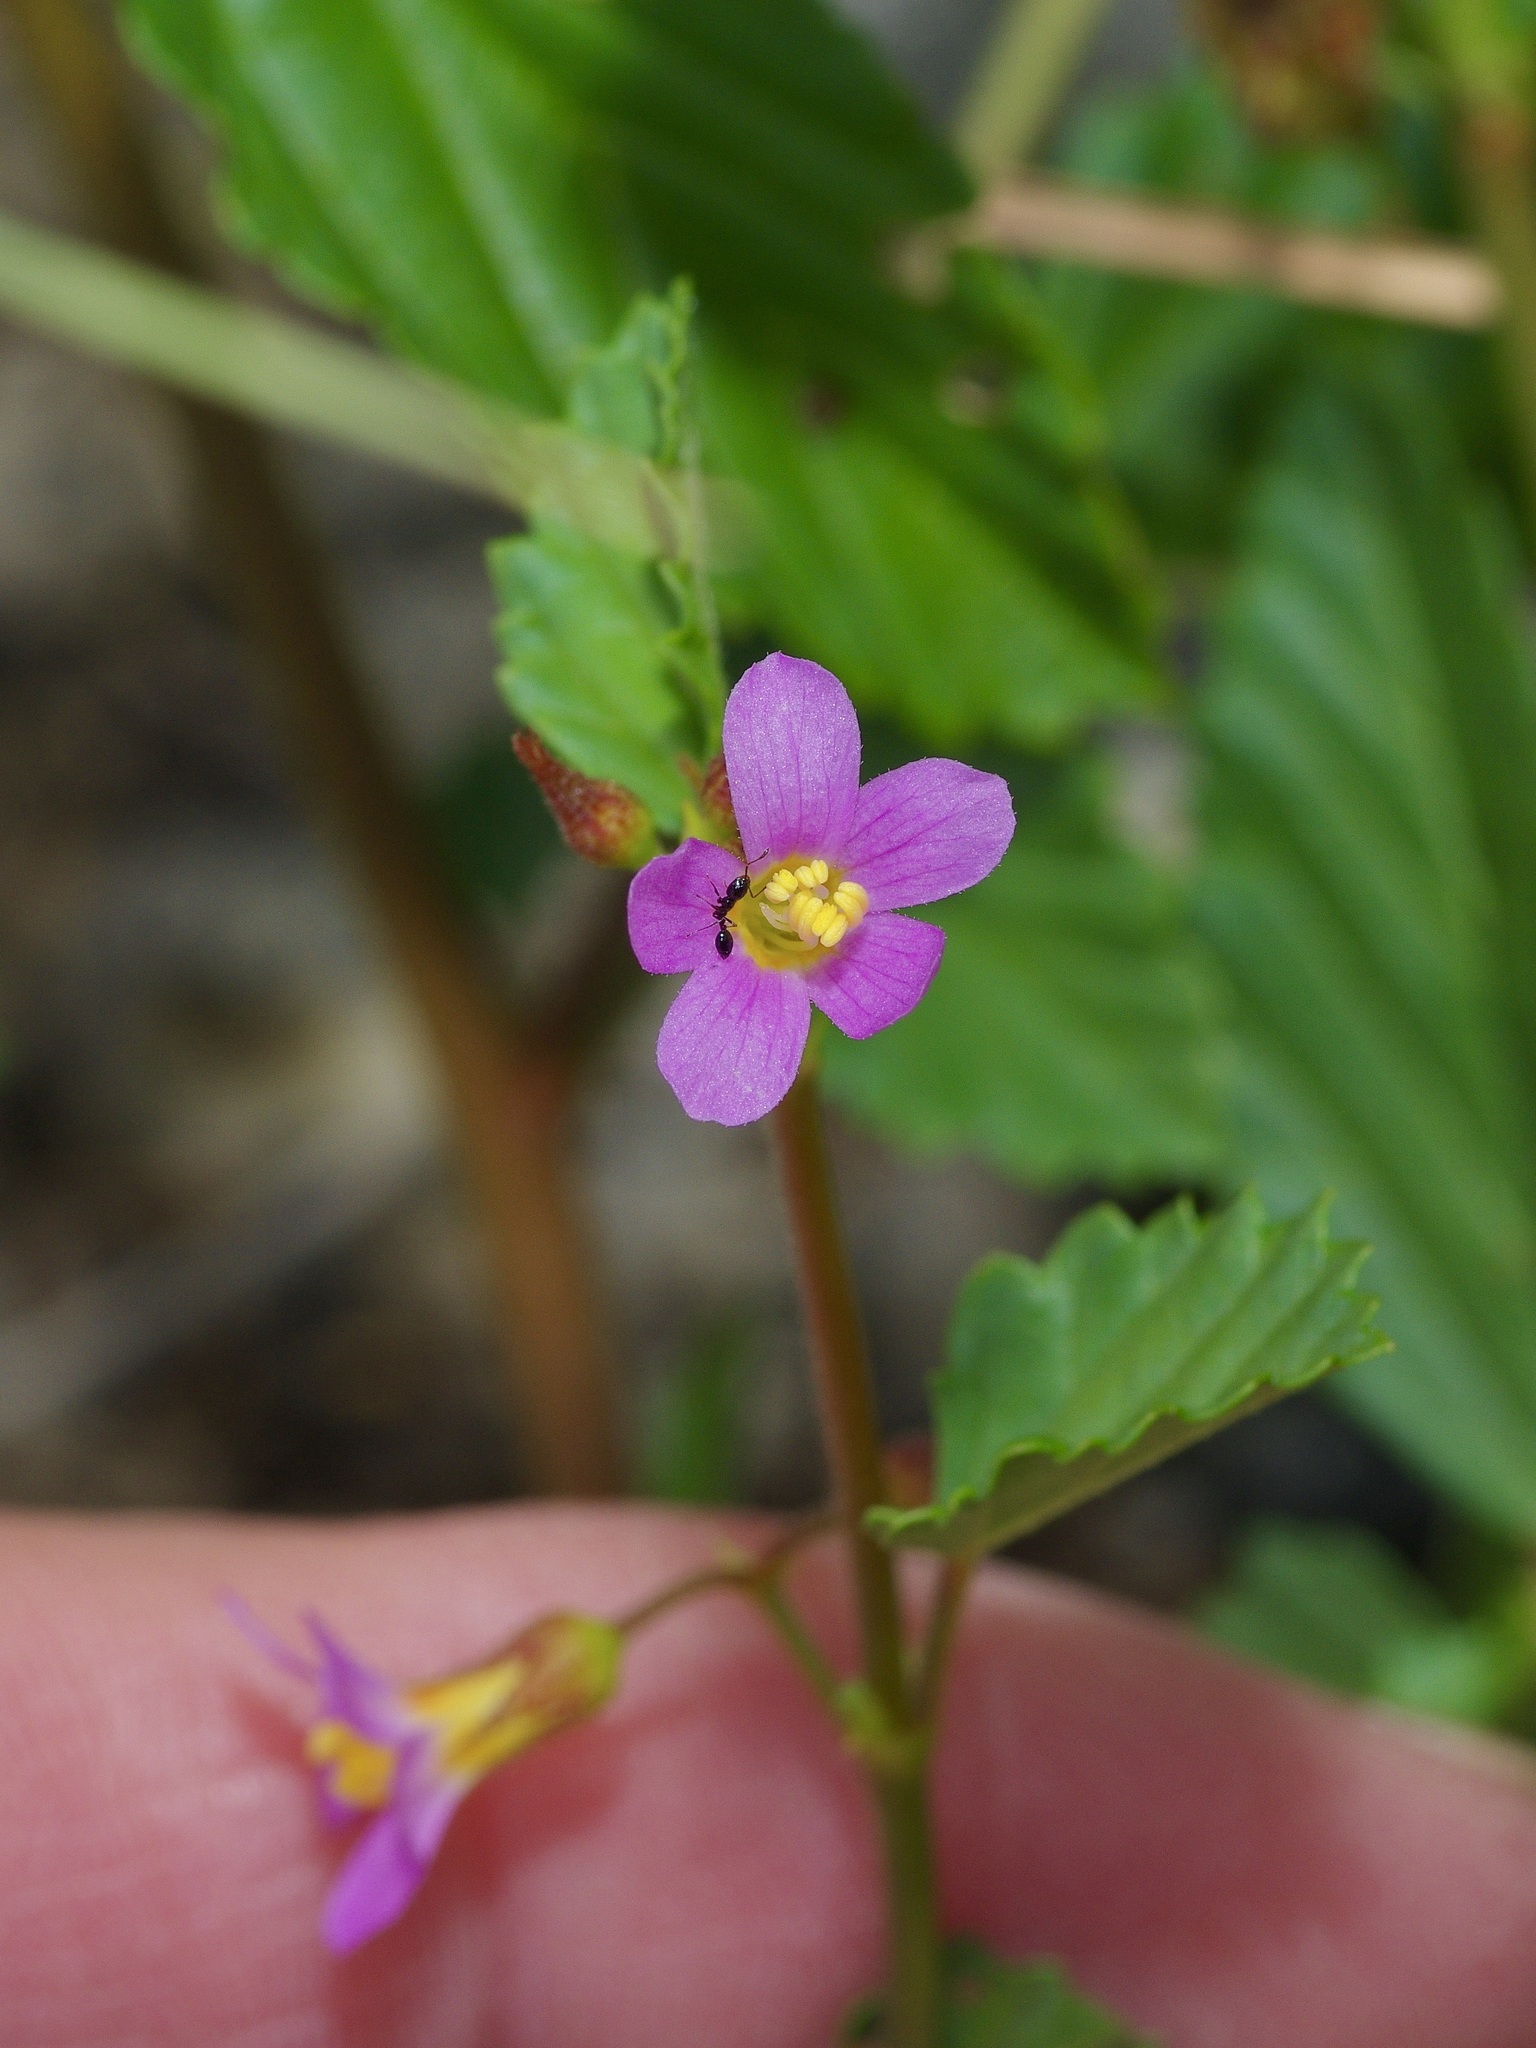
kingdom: Plantae
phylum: Tracheophyta
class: Magnoliopsida
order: Malvales
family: Malvaceae
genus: Melochia
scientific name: Melochia pyramidata
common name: Pyramidflower
